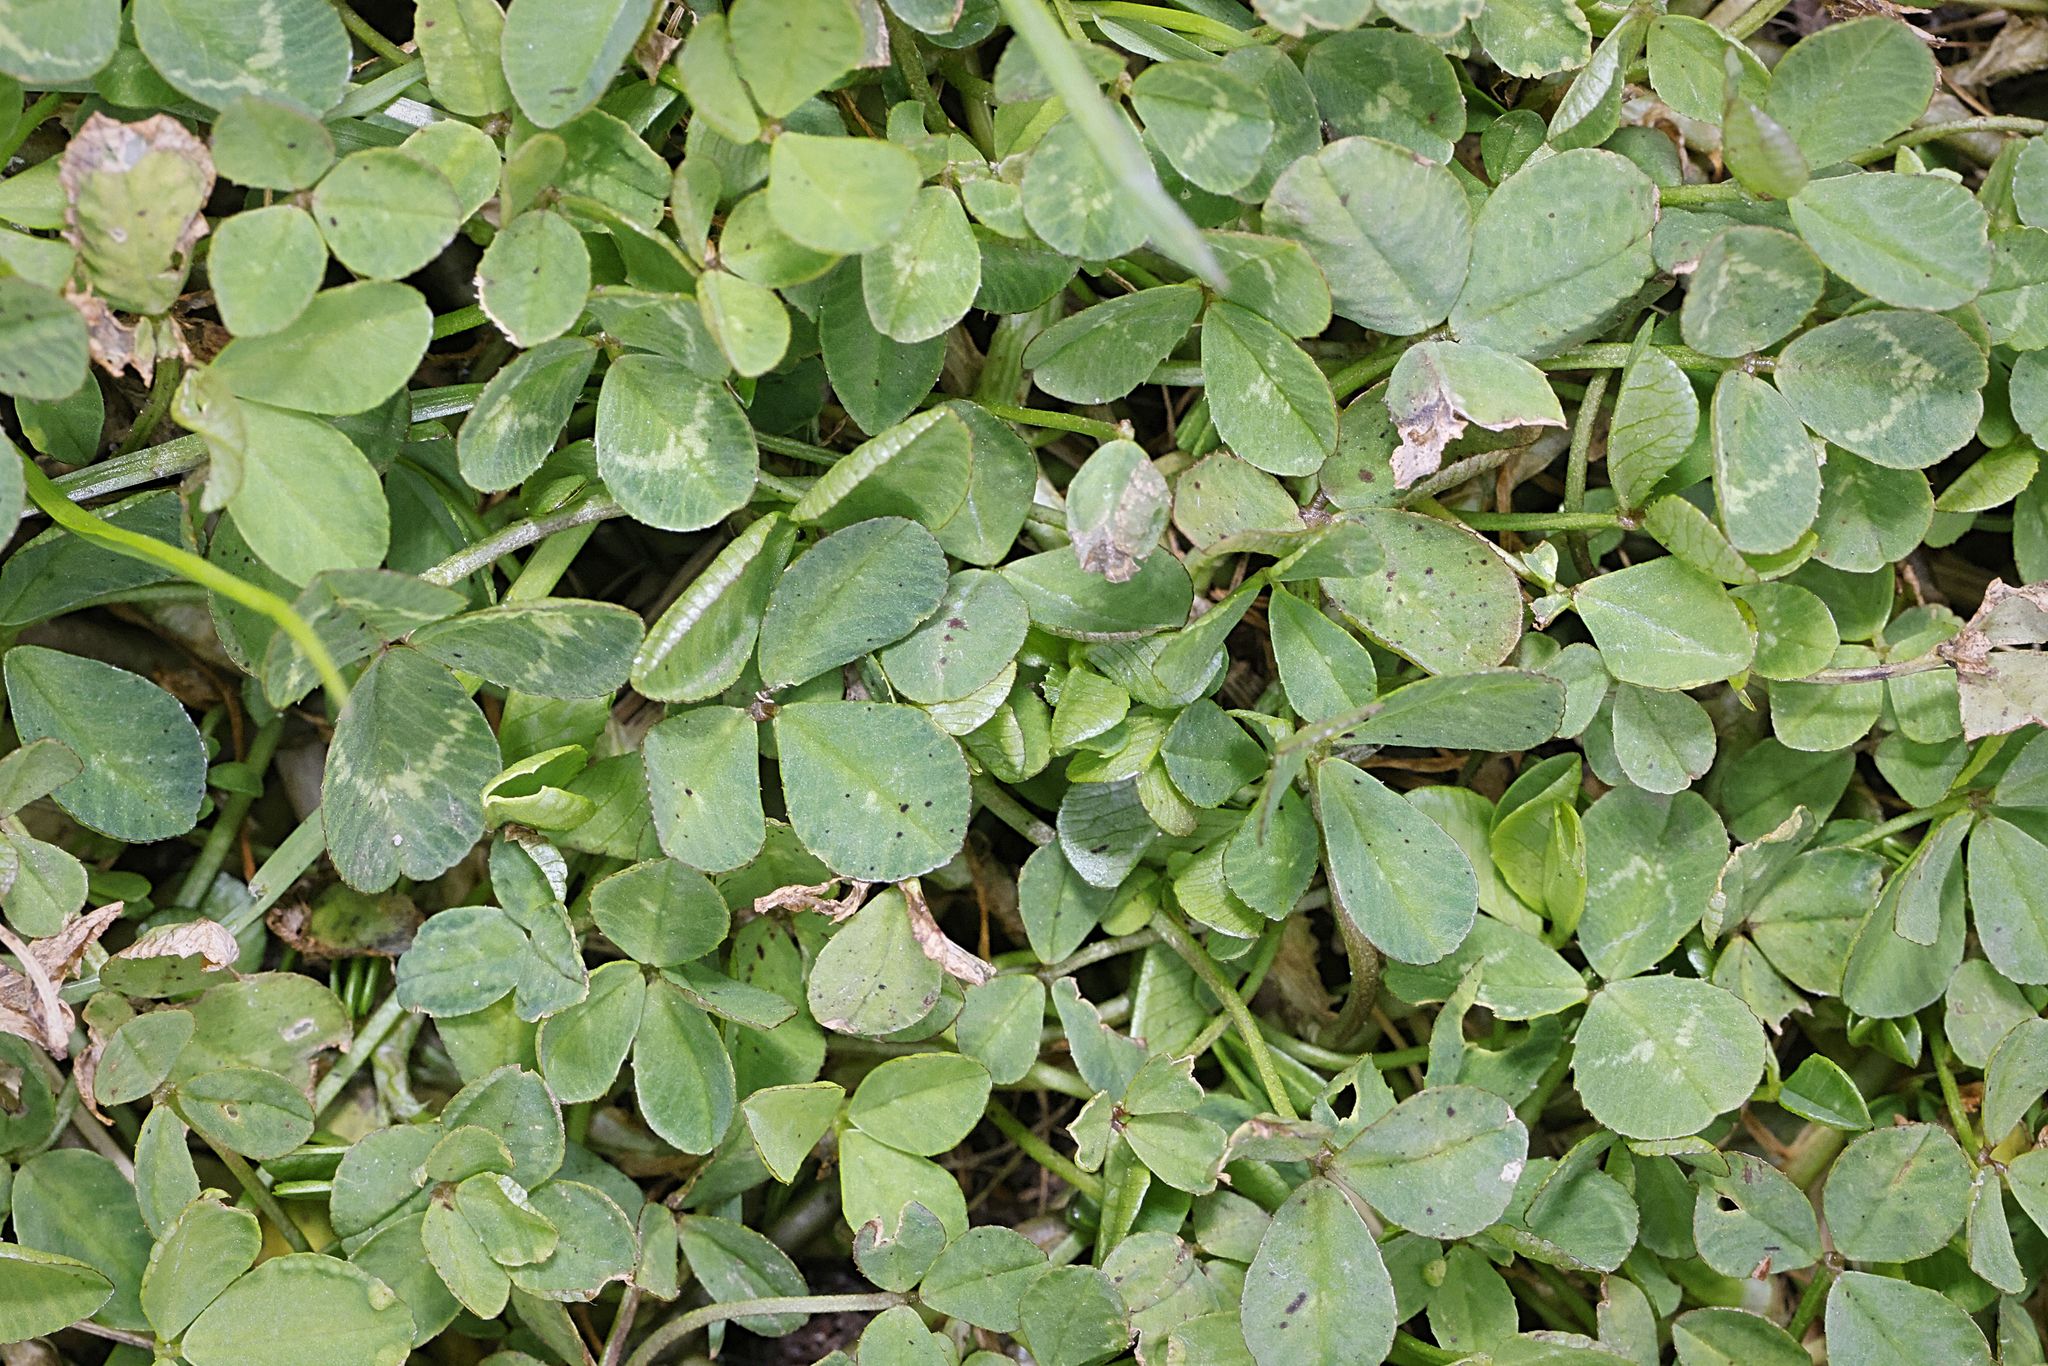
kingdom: Plantae
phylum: Tracheophyta
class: Magnoliopsida
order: Fabales
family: Fabaceae
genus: Trifolium
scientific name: Trifolium repens
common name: White clover
